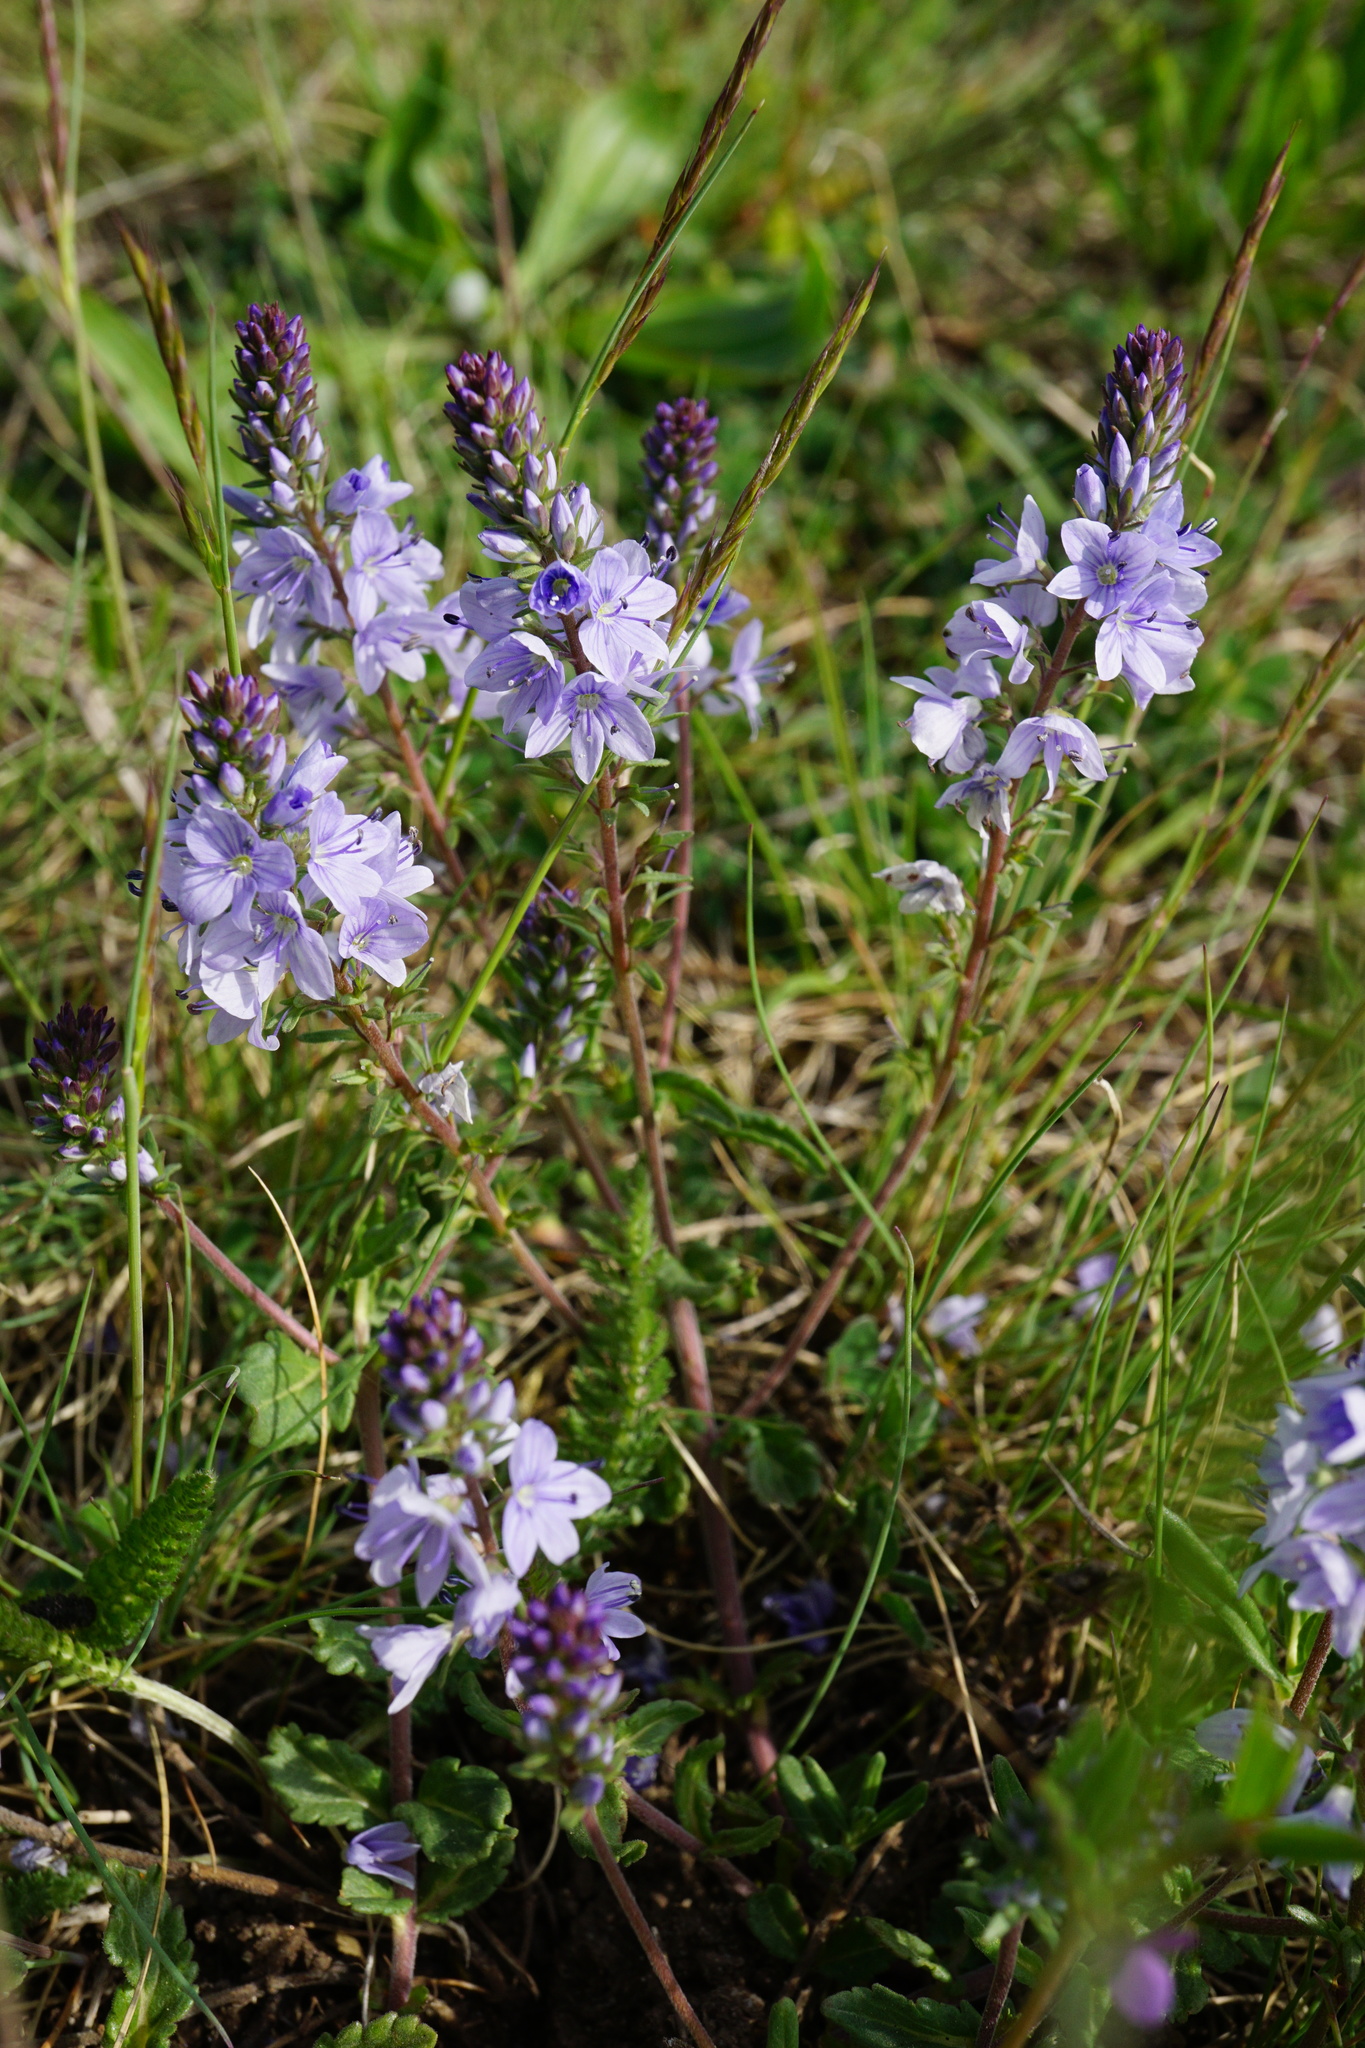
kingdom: Plantae
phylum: Tracheophyta
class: Magnoliopsida
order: Lamiales
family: Plantaginaceae
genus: Veronica
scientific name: Veronica prostrata
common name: Prostrate speedwell
